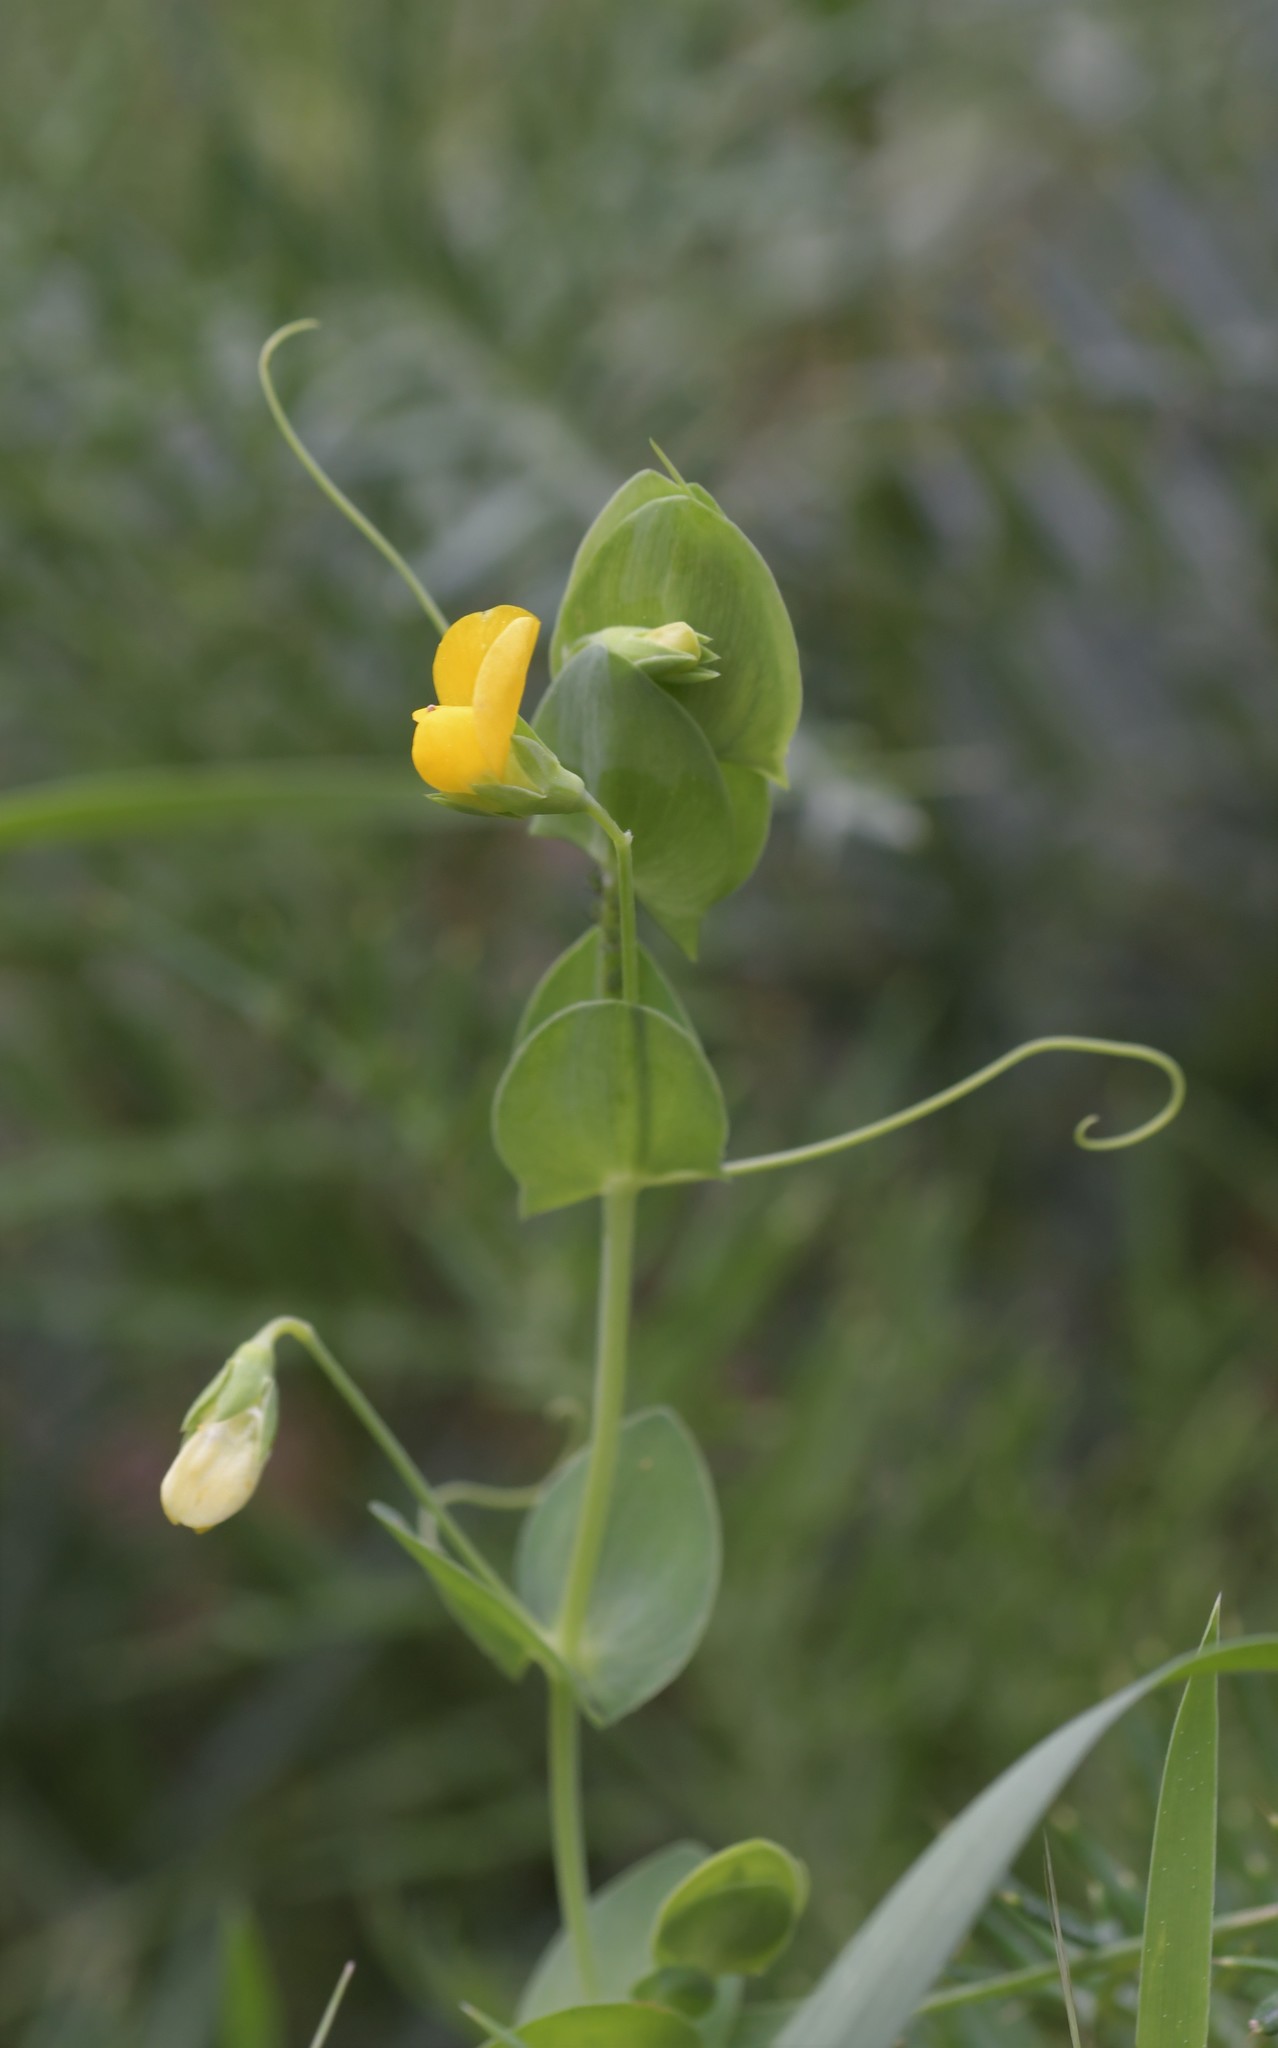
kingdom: Plantae
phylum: Tracheophyta
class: Magnoliopsida
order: Fabales
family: Fabaceae
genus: Lathyrus
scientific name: Lathyrus aphaca
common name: Yellow vetchling
